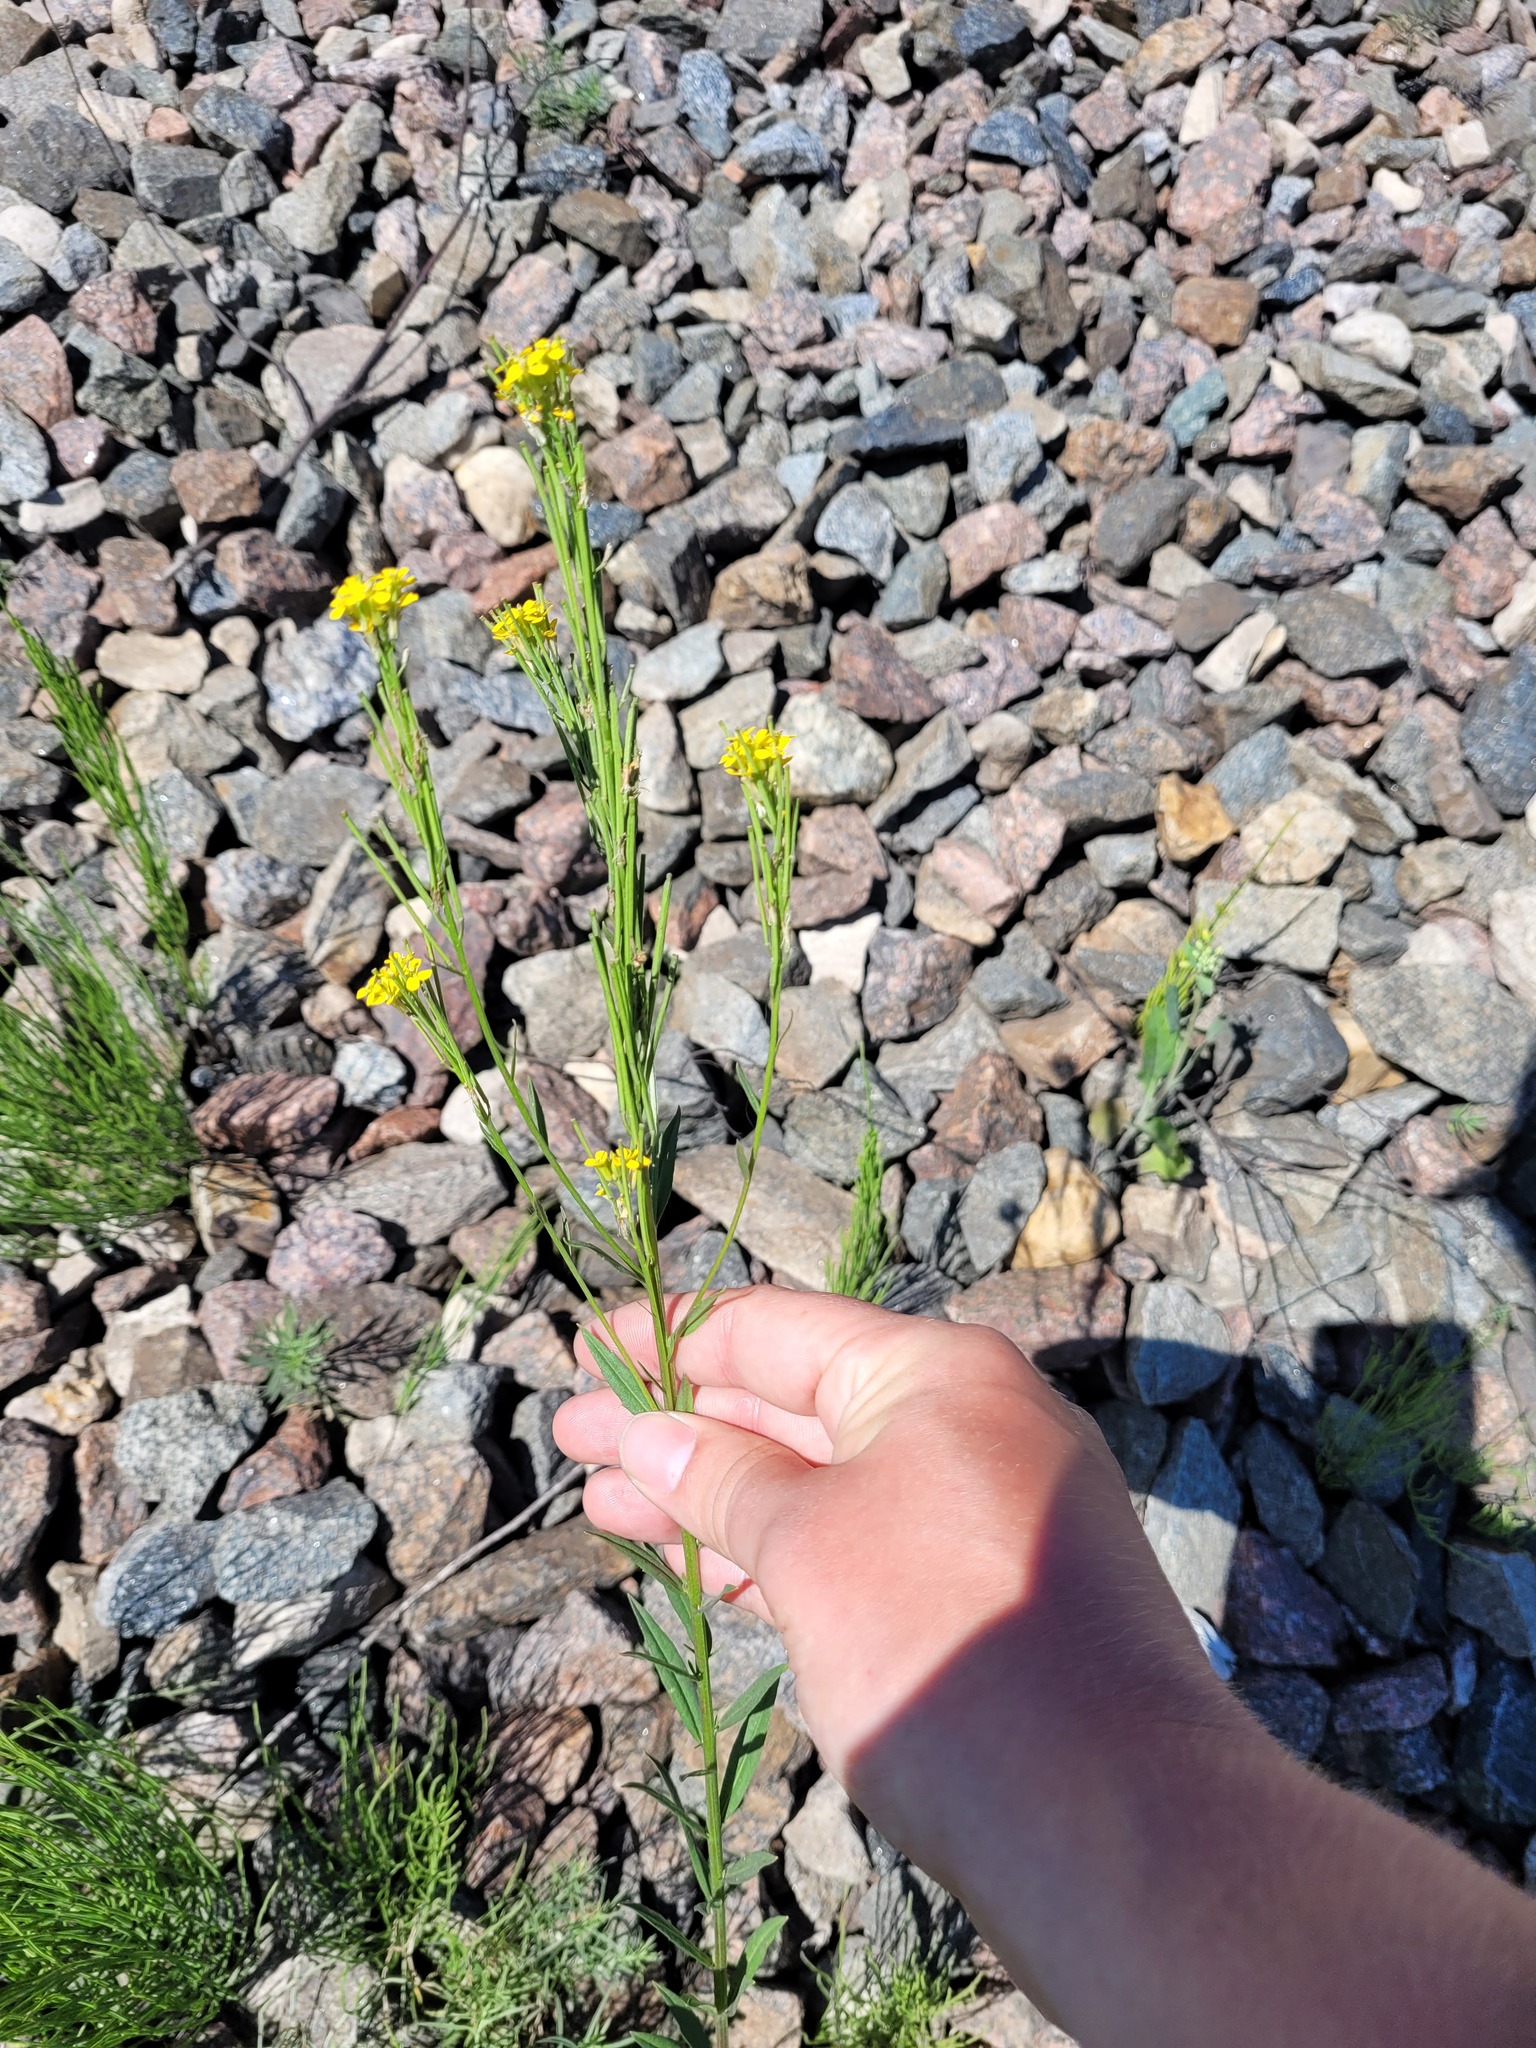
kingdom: Plantae
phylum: Tracheophyta
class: Magnoliopsida
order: Brassicales
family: Brassicaceae
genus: Erysimum
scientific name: Erysimum hieraciifolium
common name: European wallflower
